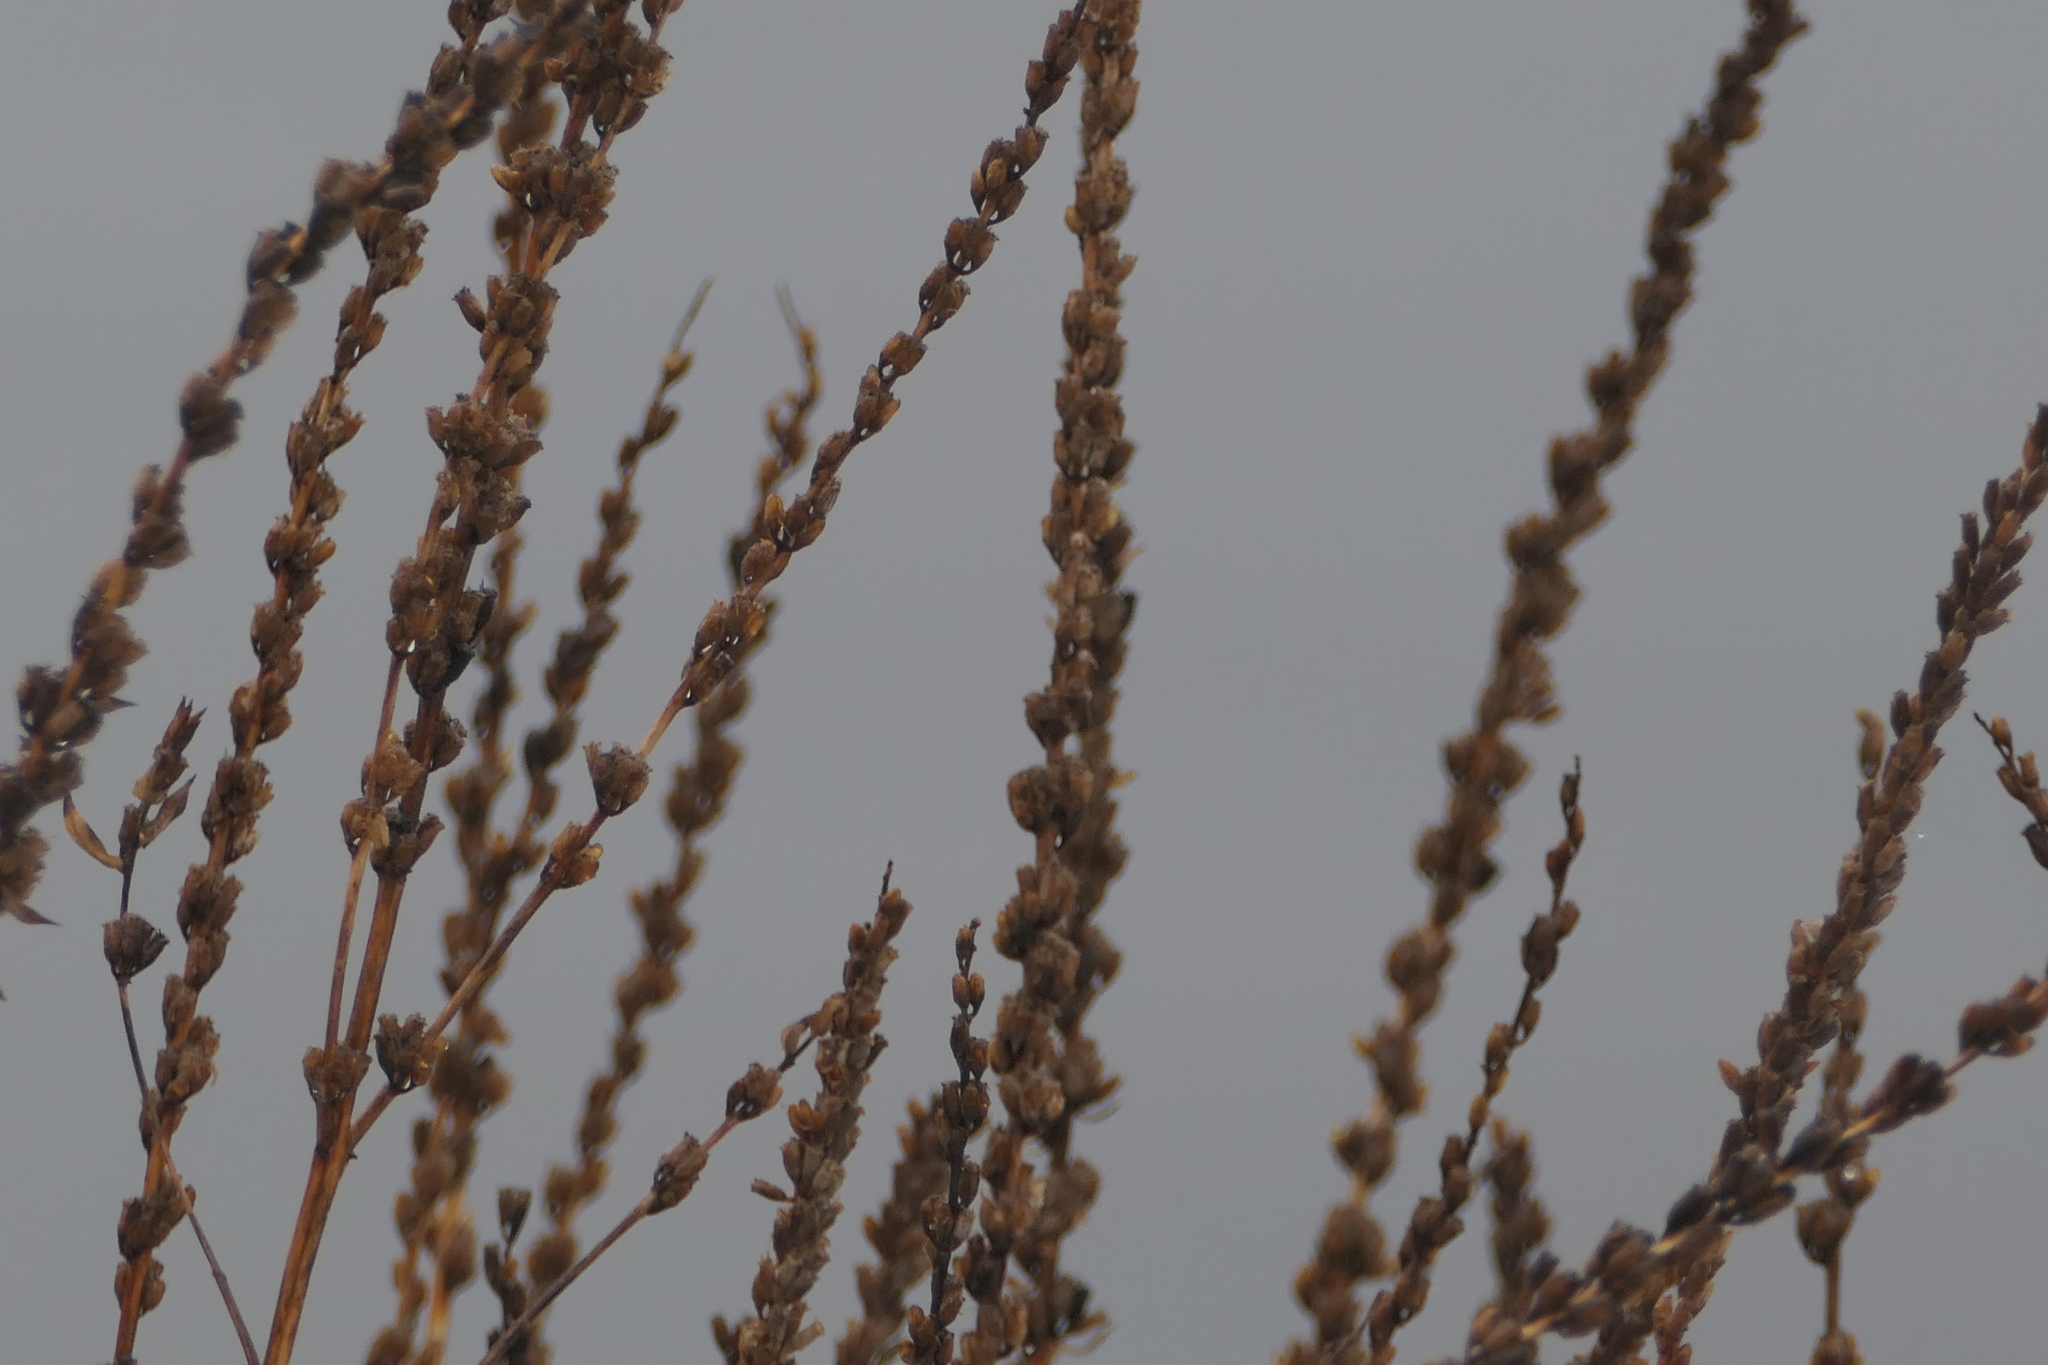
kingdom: Plantae
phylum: Tracheophyta
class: Magnoliopsida
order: Lamiales
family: Verbenaceae
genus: Verbena
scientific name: Verbena hastata
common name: American blue vervain
